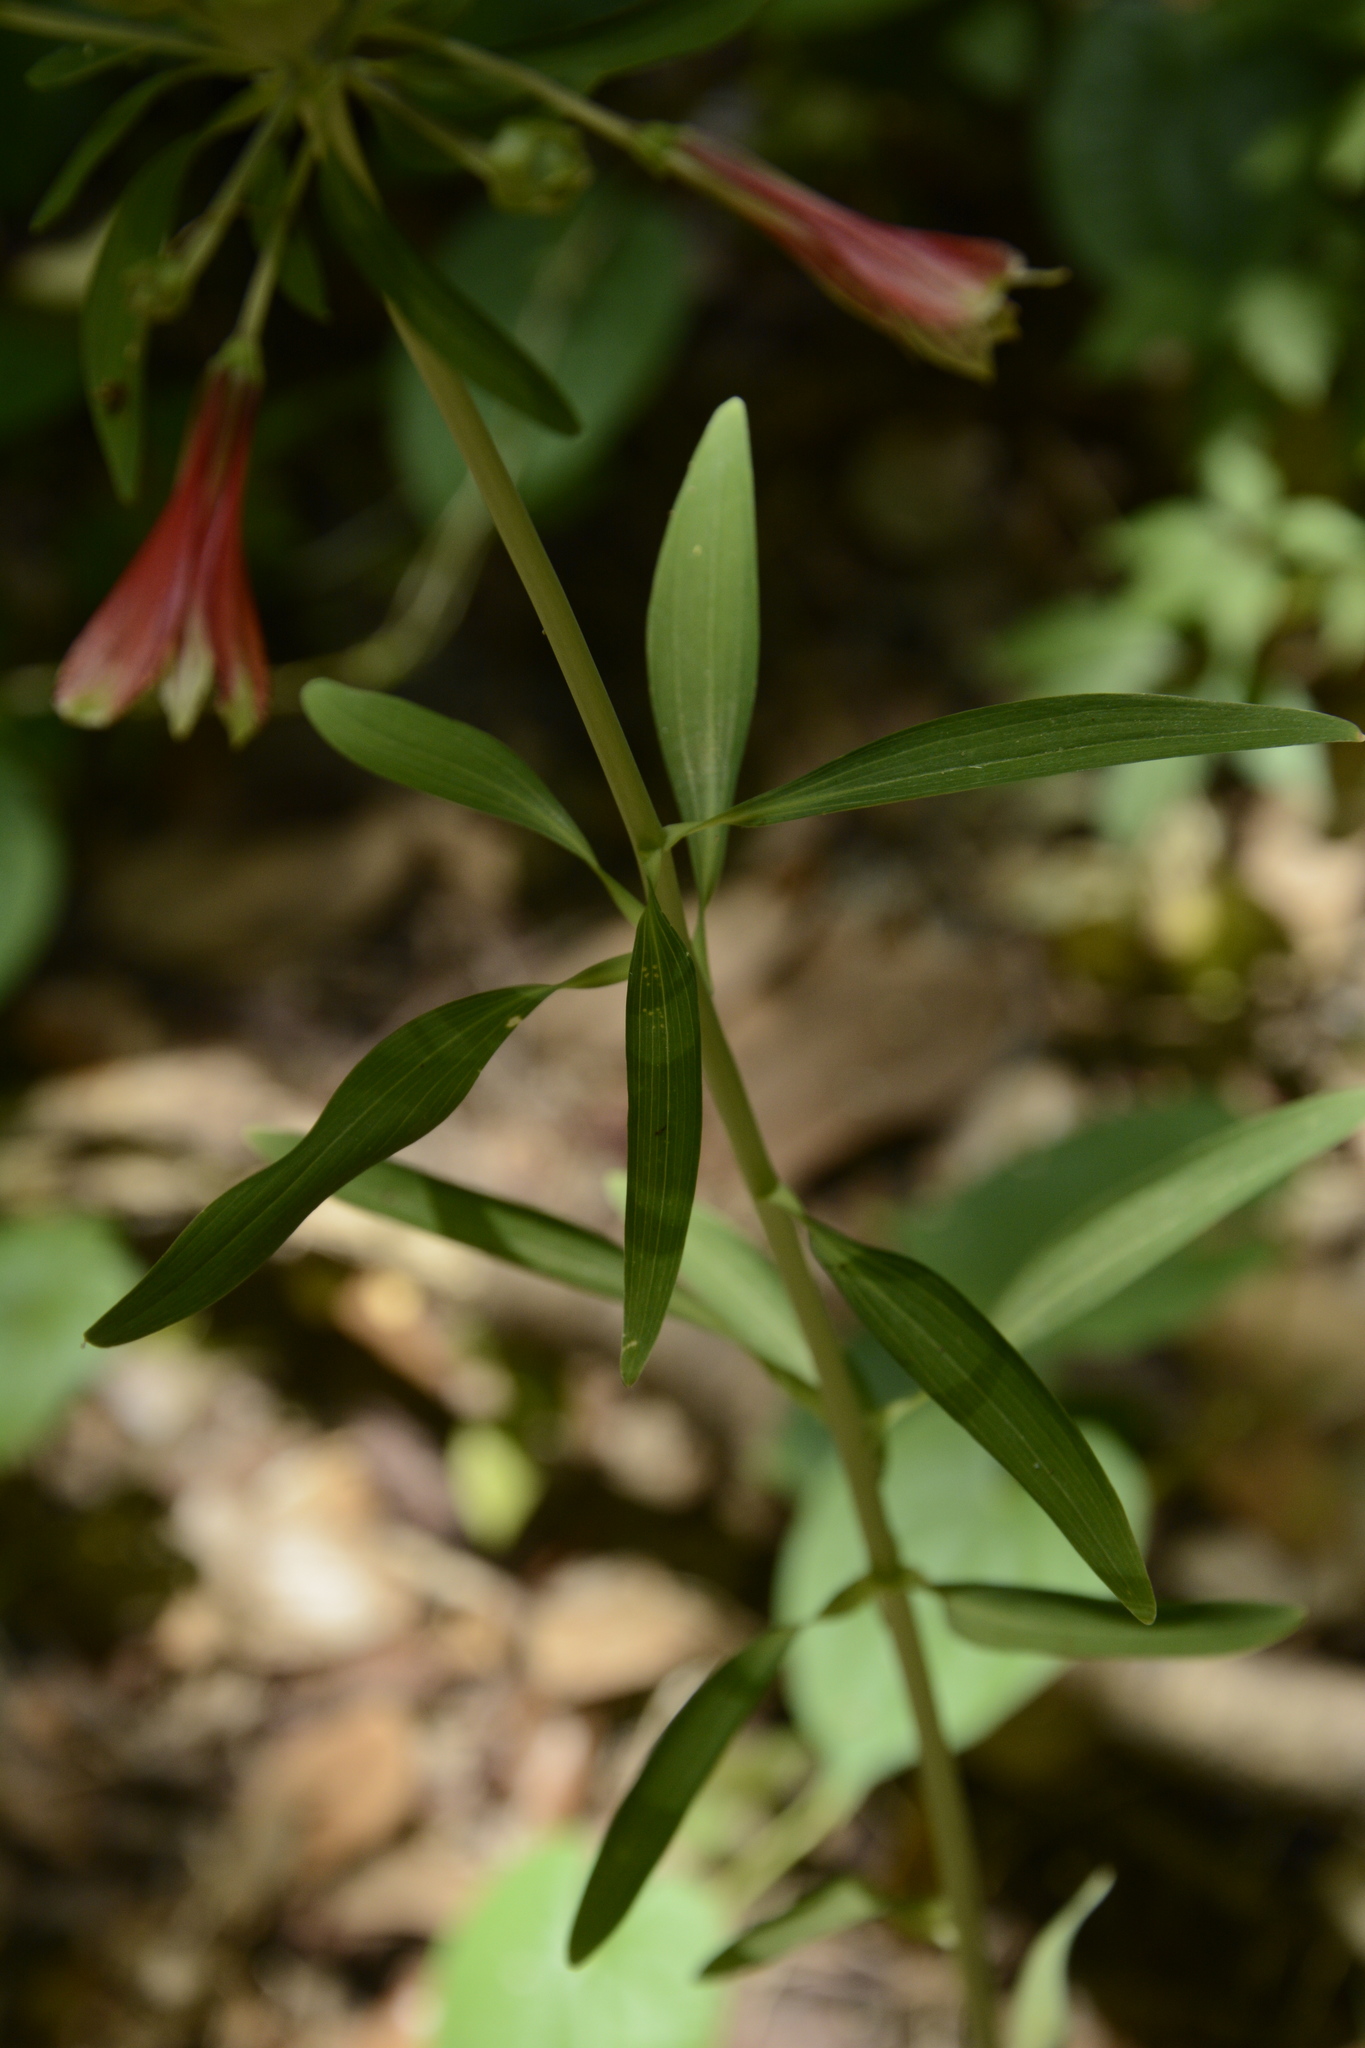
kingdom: Plantae
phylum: Tracheophyta
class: Liliopsida
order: Liliales
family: Alstroemeriaceae
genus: Alstroemeria
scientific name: Alstroemeria psittacina
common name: Peruvian-lily
